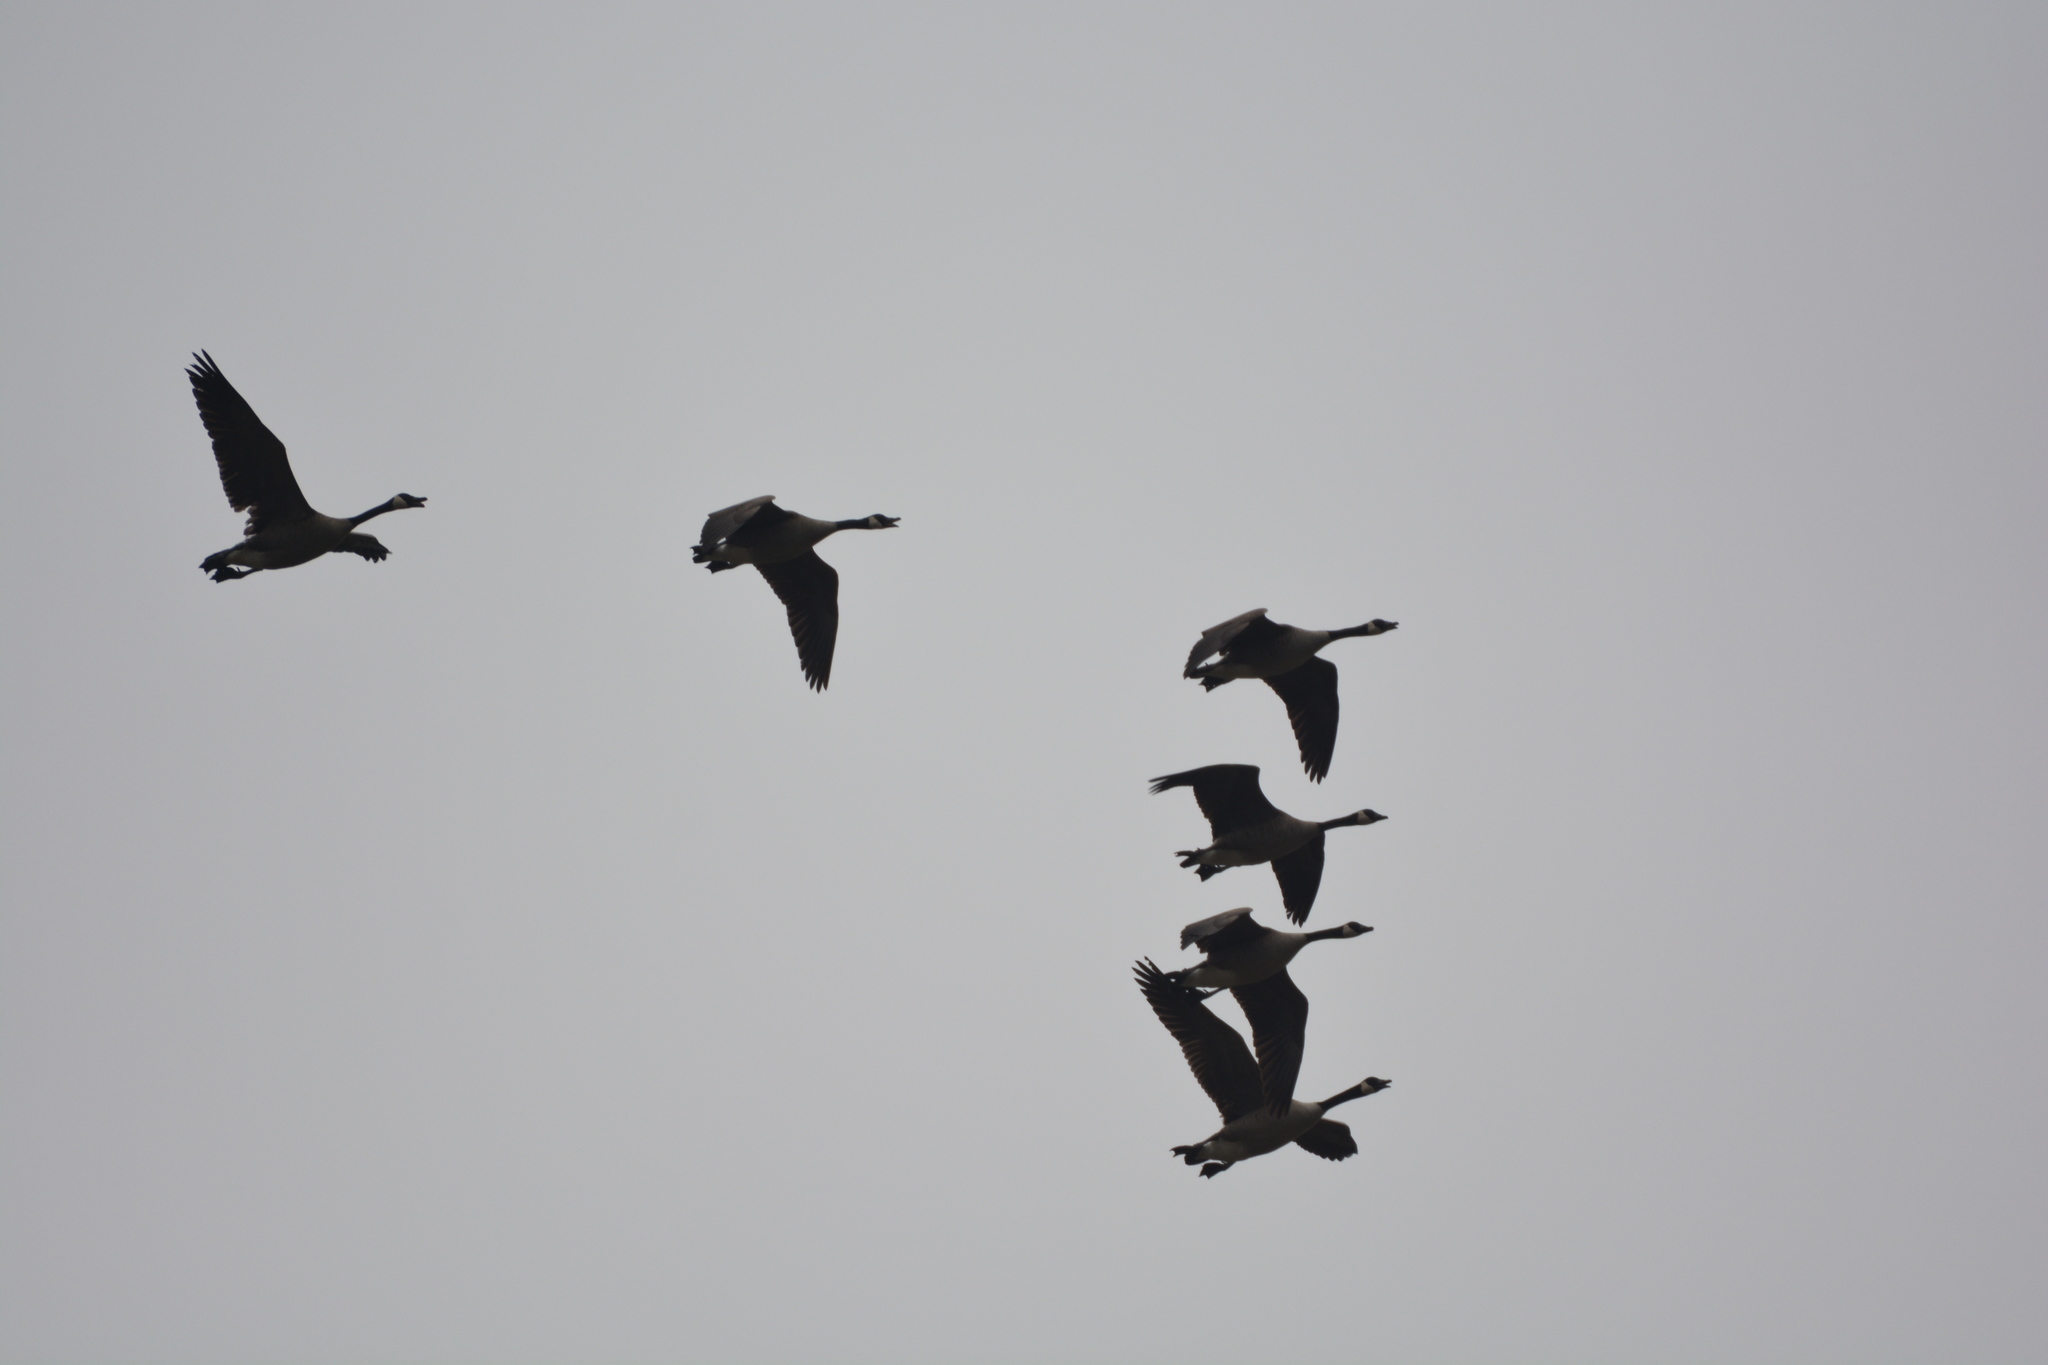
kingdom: Animalia
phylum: Chordata
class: Aves
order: Anseriformes
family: Anatidae
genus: Branta
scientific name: Branta canadensis
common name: Canada goose
